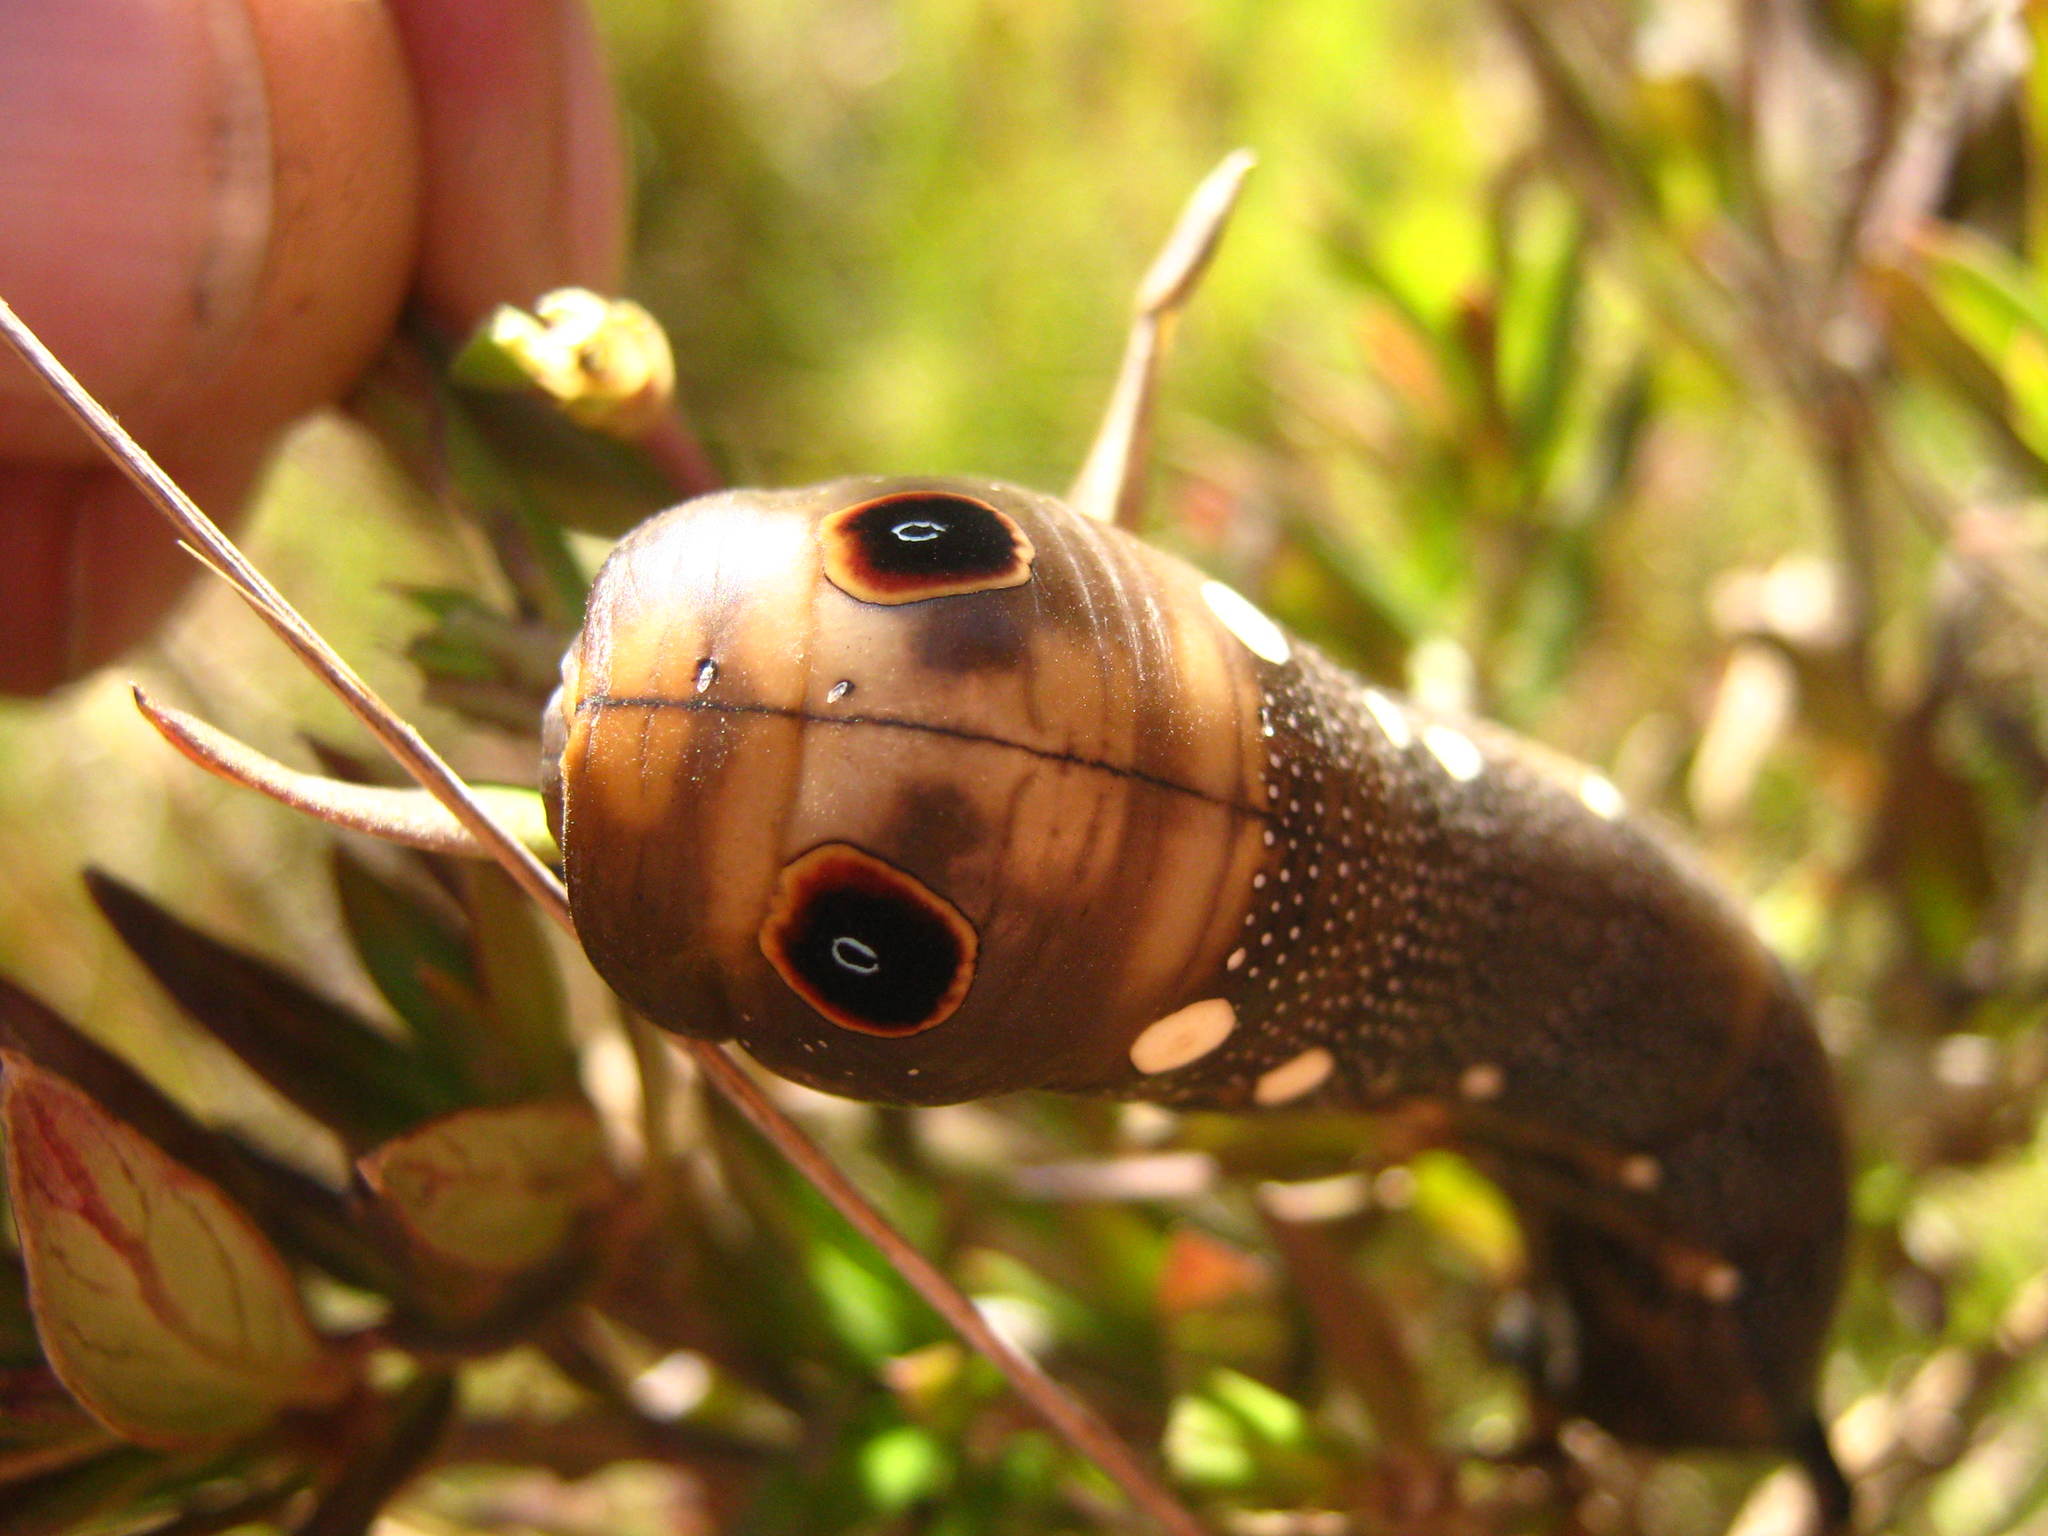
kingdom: Animalia
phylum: Arthropoda
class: Insecta
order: Lepidoptera
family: Sphingidae
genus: Xylophanes
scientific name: Xylophanes falco
